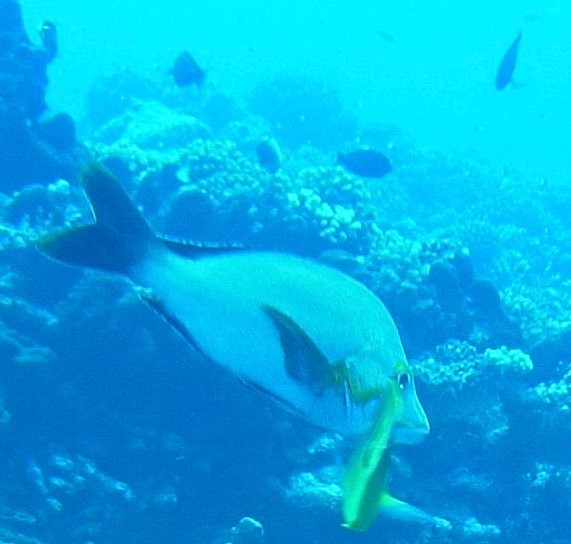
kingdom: Animalia
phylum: Chordata
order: Perciformes
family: Lutjanidae
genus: Lutjanus
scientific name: Lutjanus gibbus
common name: Humpback snapper
